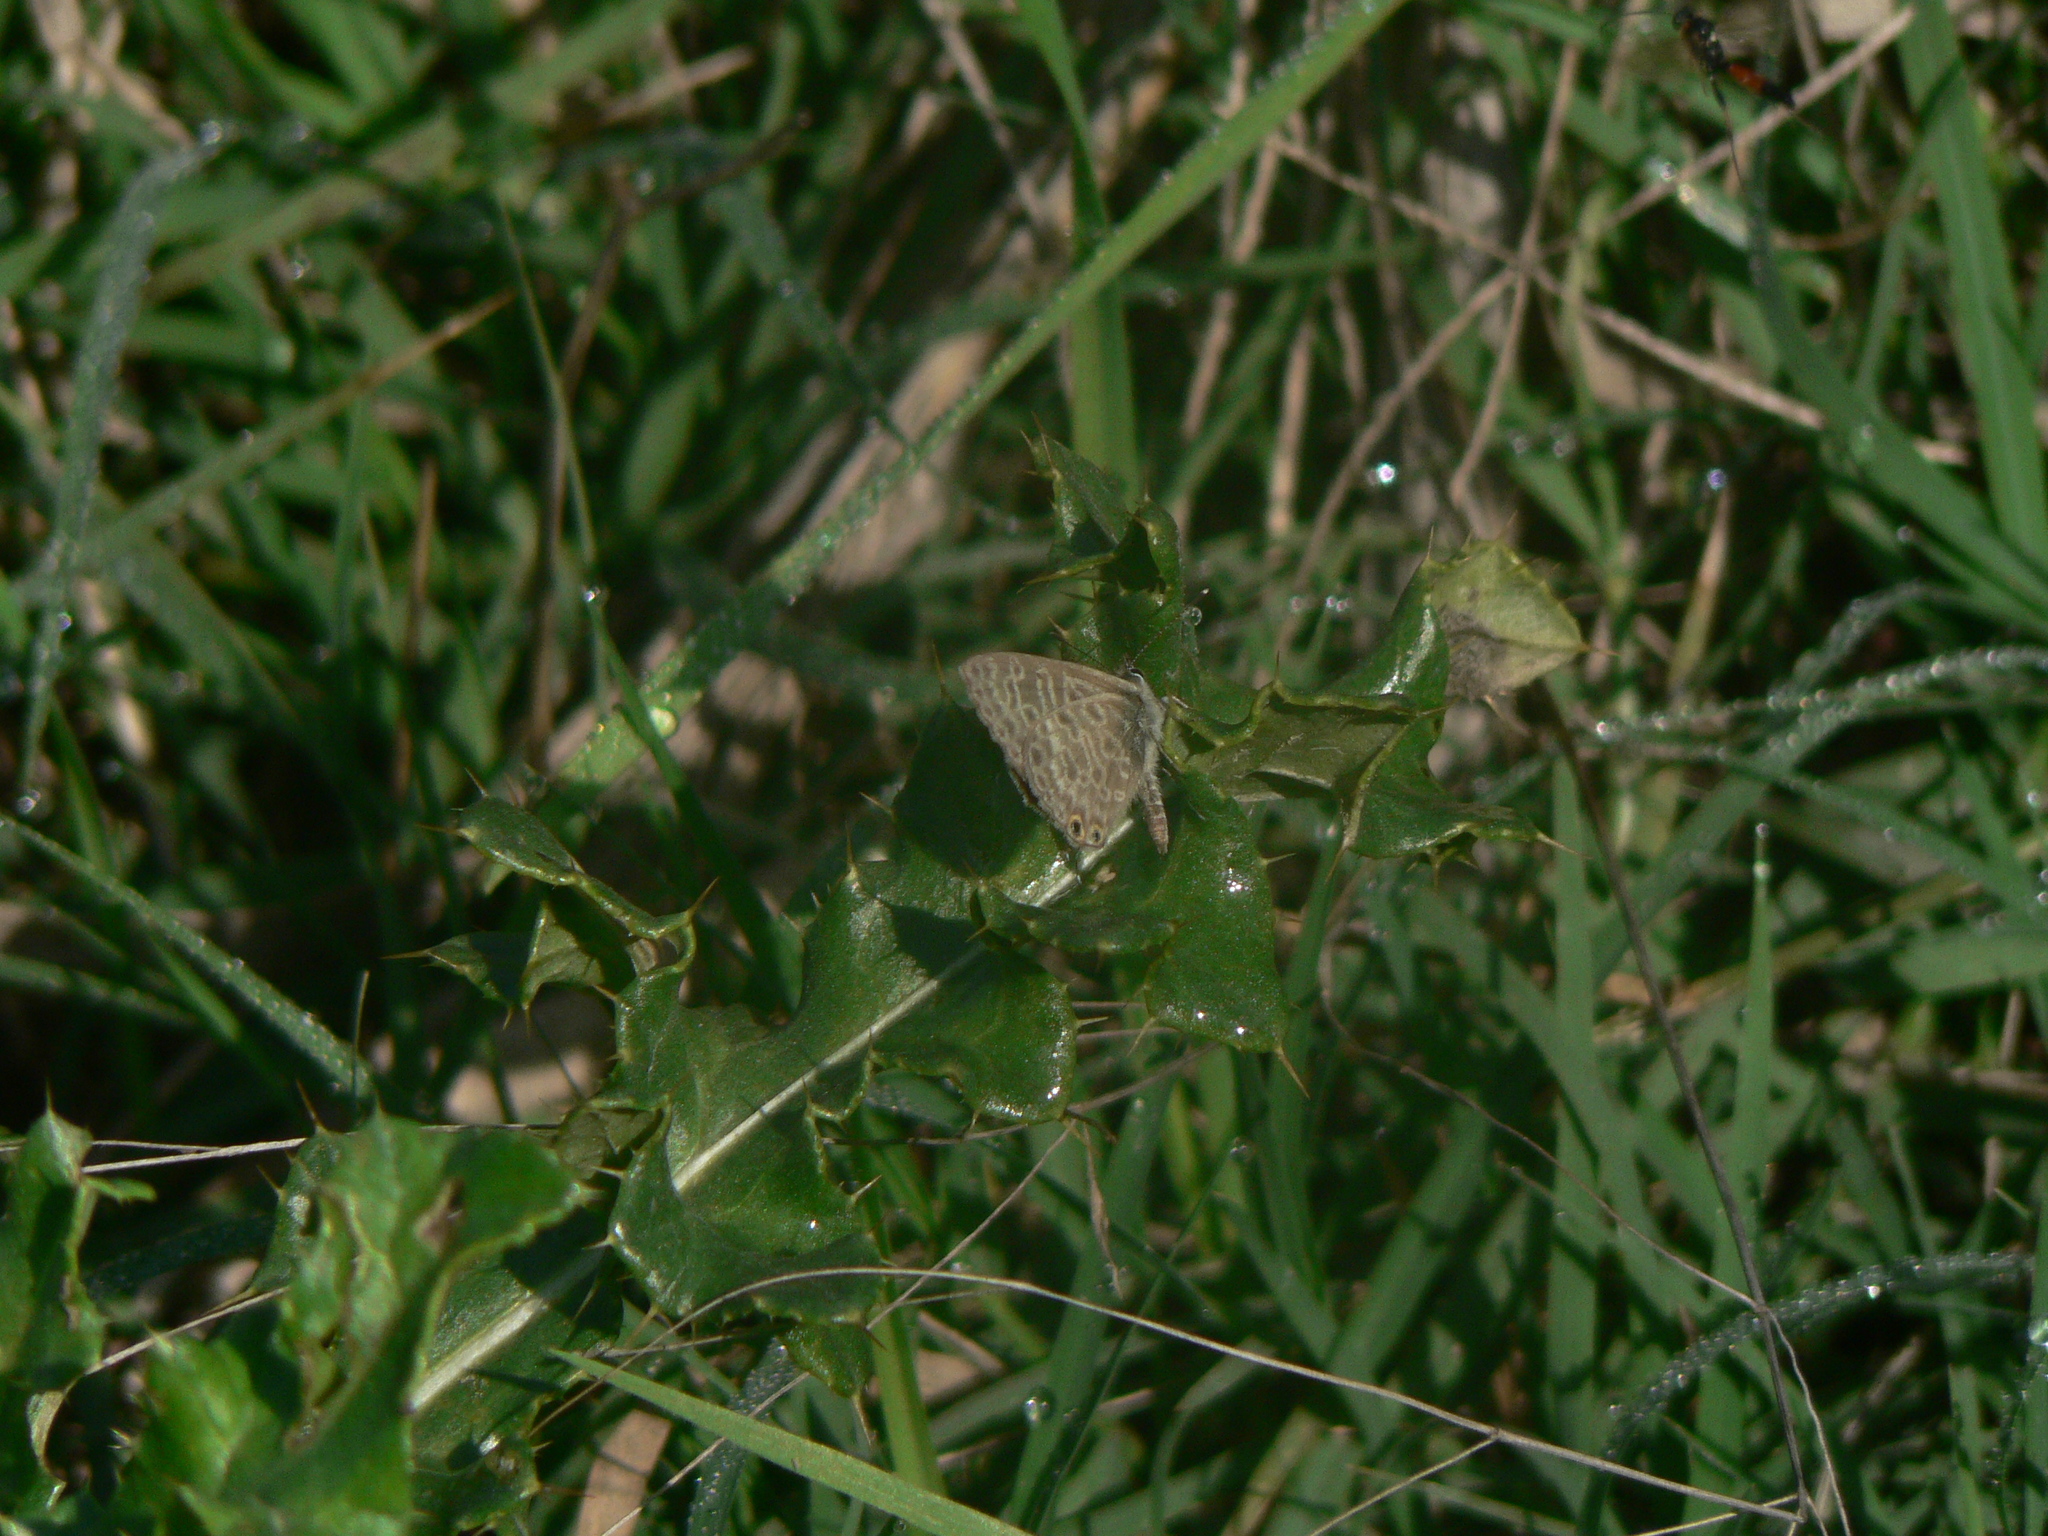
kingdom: Animalia
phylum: Arthropoda
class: Insecta
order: Lepidoptera
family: Lycaenidae
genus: Leptotes
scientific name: Leptotes pirithous
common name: Lang's short-tailed blue
